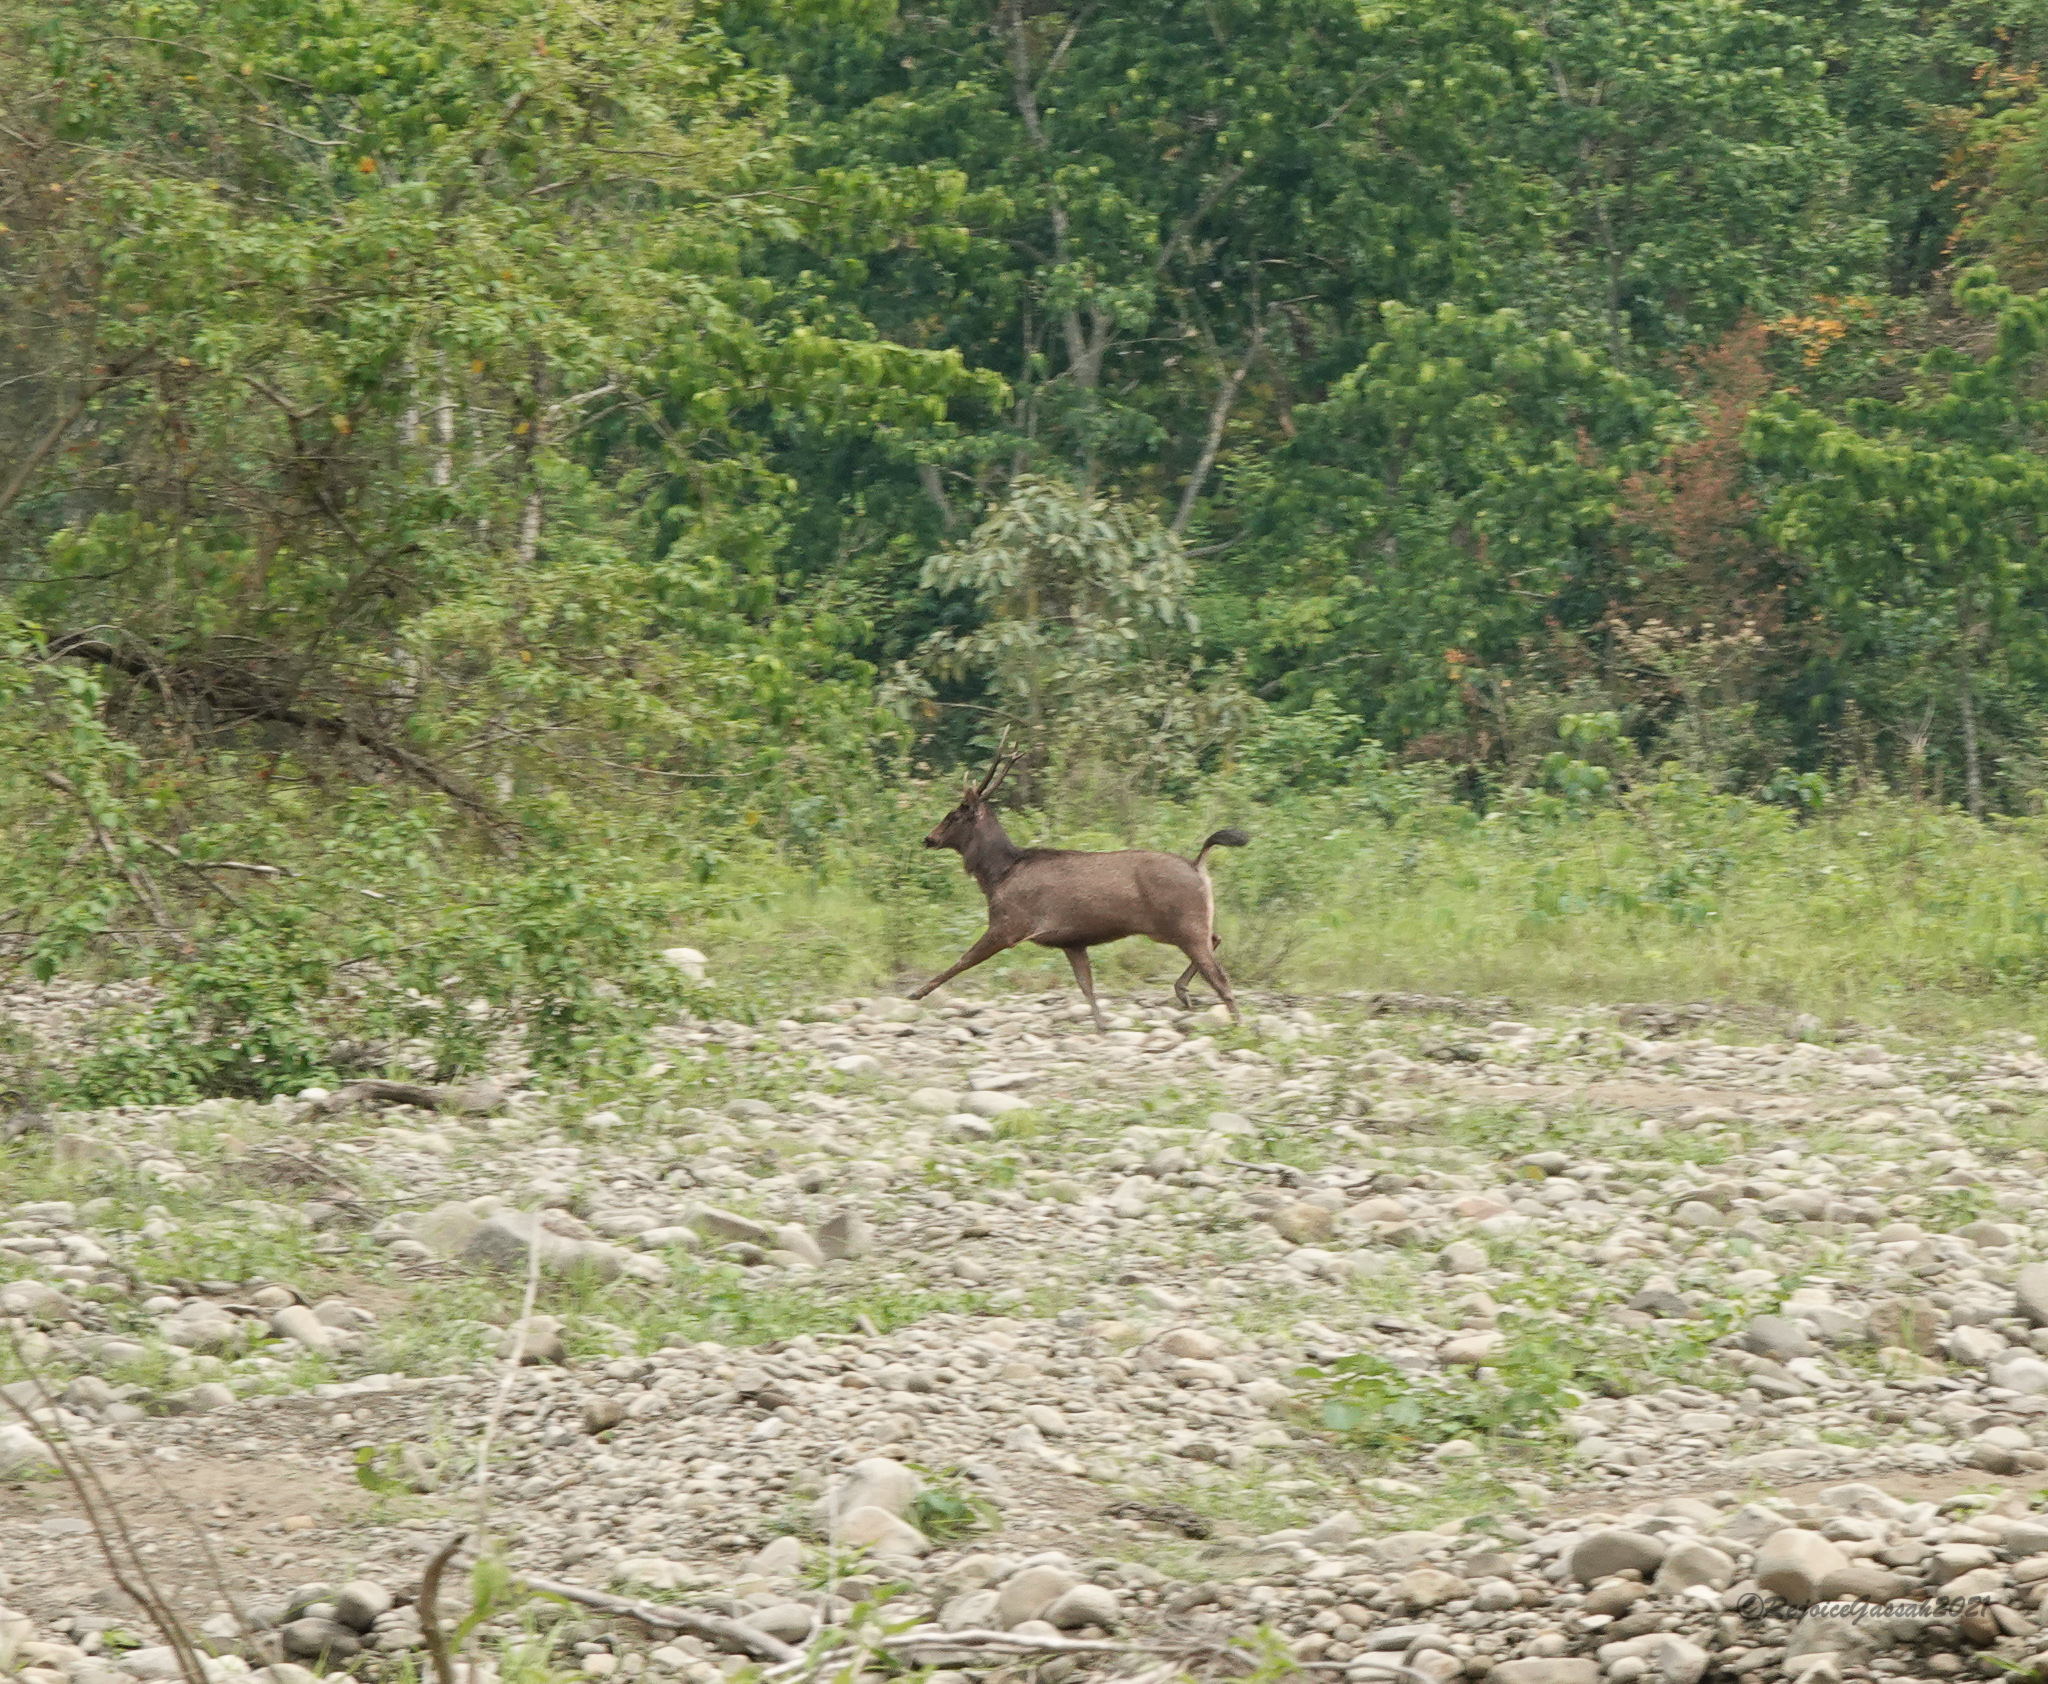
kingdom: Animalia
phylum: Chordata
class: Mammalia
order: Artiodactyla
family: Cervidae
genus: Rusa
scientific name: Rusa unicolor
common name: Sambar
